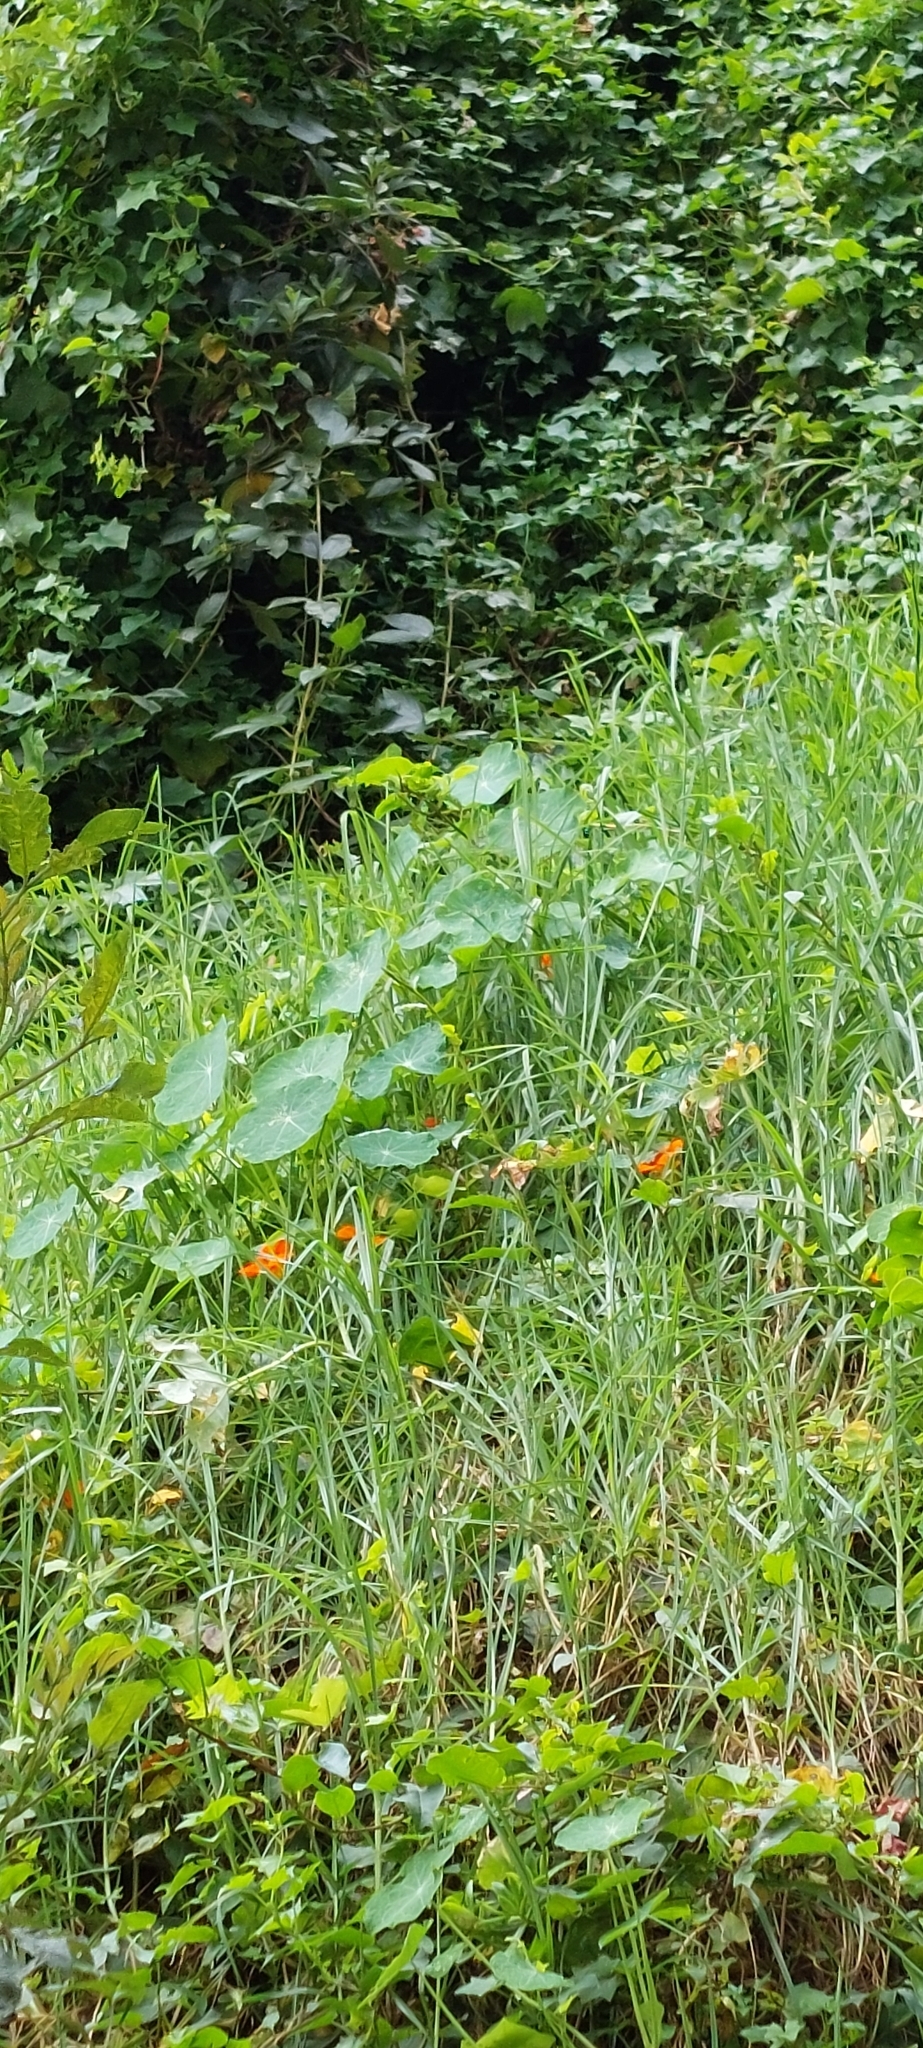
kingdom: Plantae
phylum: Tracheophyta
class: Magnoliopsida
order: Brassicales
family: Tropaeolaceae
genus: Tropaeolum
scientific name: Tropaeolum majus
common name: Nasturtium
